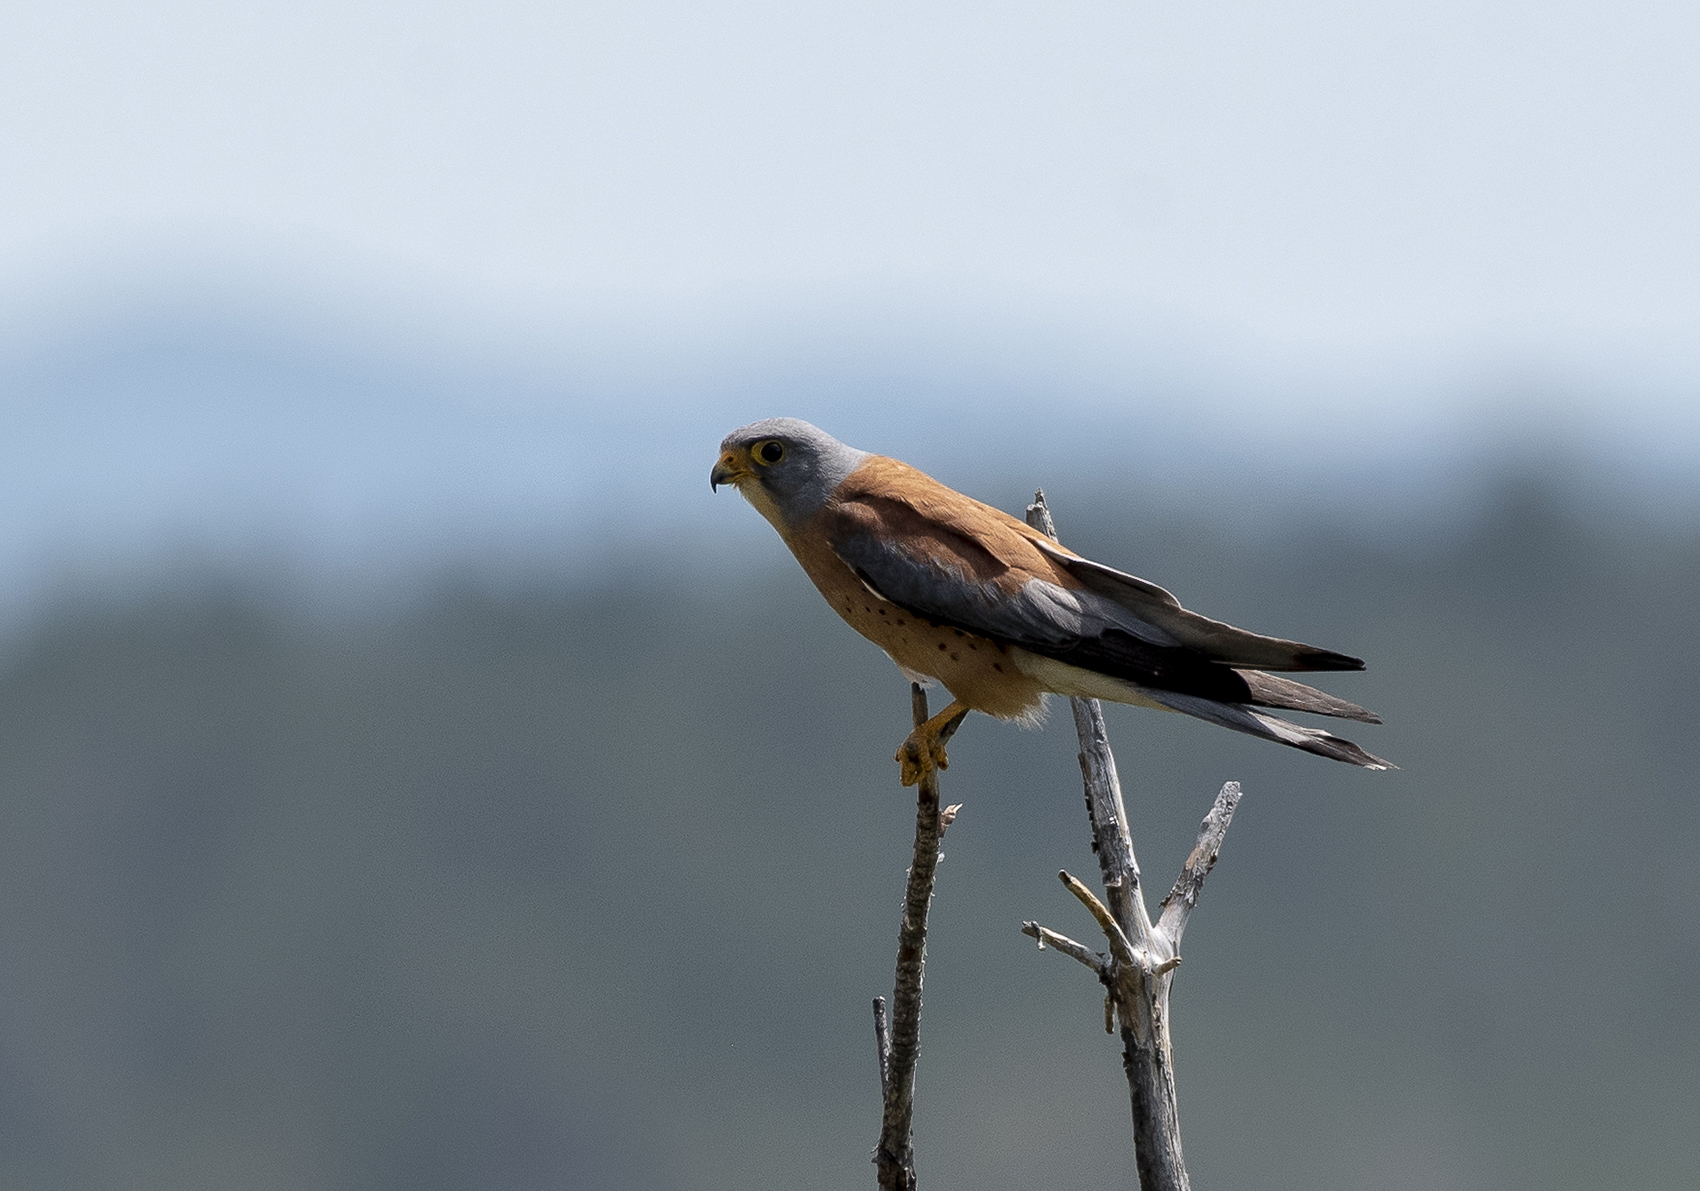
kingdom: Animalia
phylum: Chordata
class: Aves
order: Falconiformes
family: Falconidae
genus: Falco
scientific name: Falco naumanni
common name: Lesser kestrel
